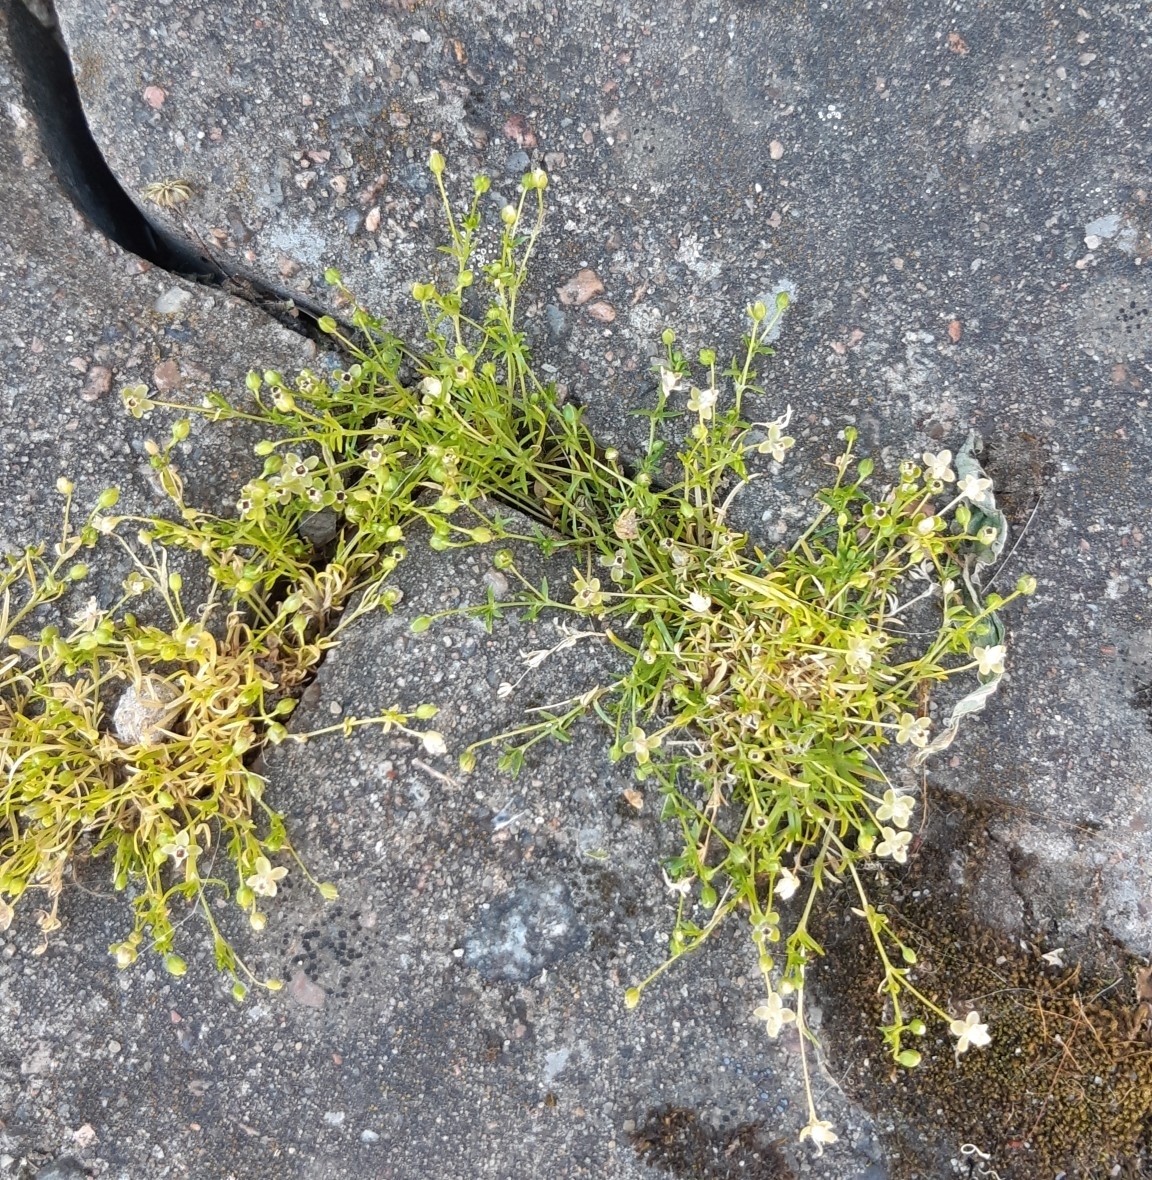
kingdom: Plantae
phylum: Tracheophyta
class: Magnoliopsida
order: Caryophyllales
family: Caryophyllaceae
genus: Sagina
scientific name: Sagina procumbens
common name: Procumbent pearlwort
